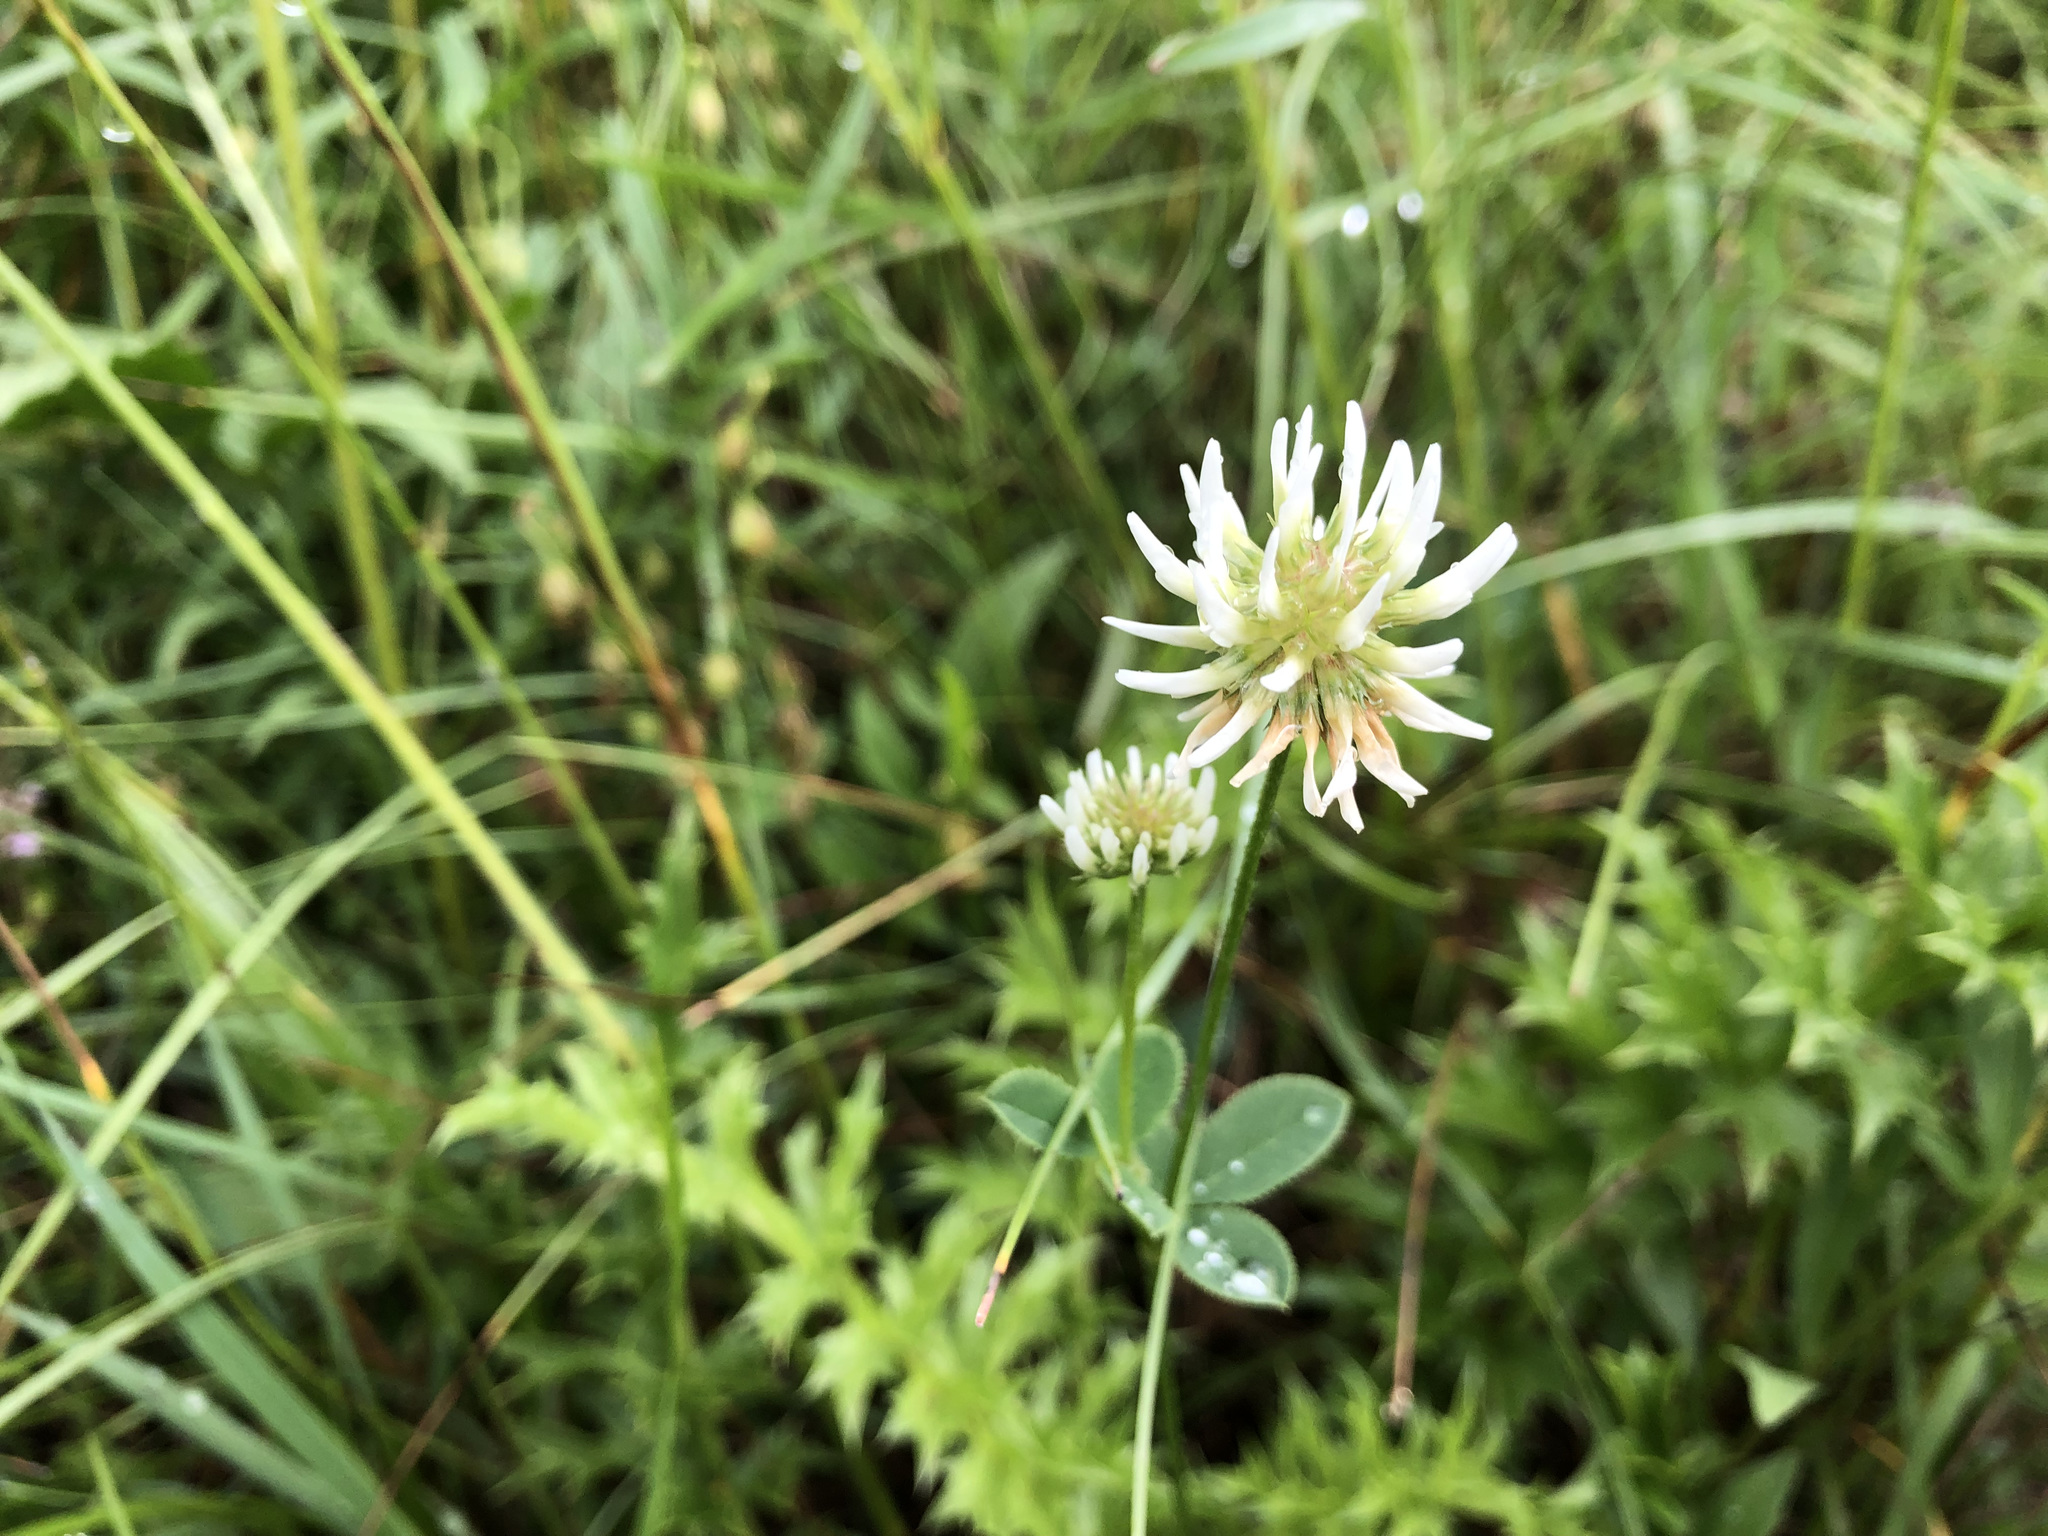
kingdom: Plantae
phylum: Tracheophyta
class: Magnoliopsida
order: Fabales
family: Fabaceae
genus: Trifolium
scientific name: Trifolium montanum
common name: Mountain clover
